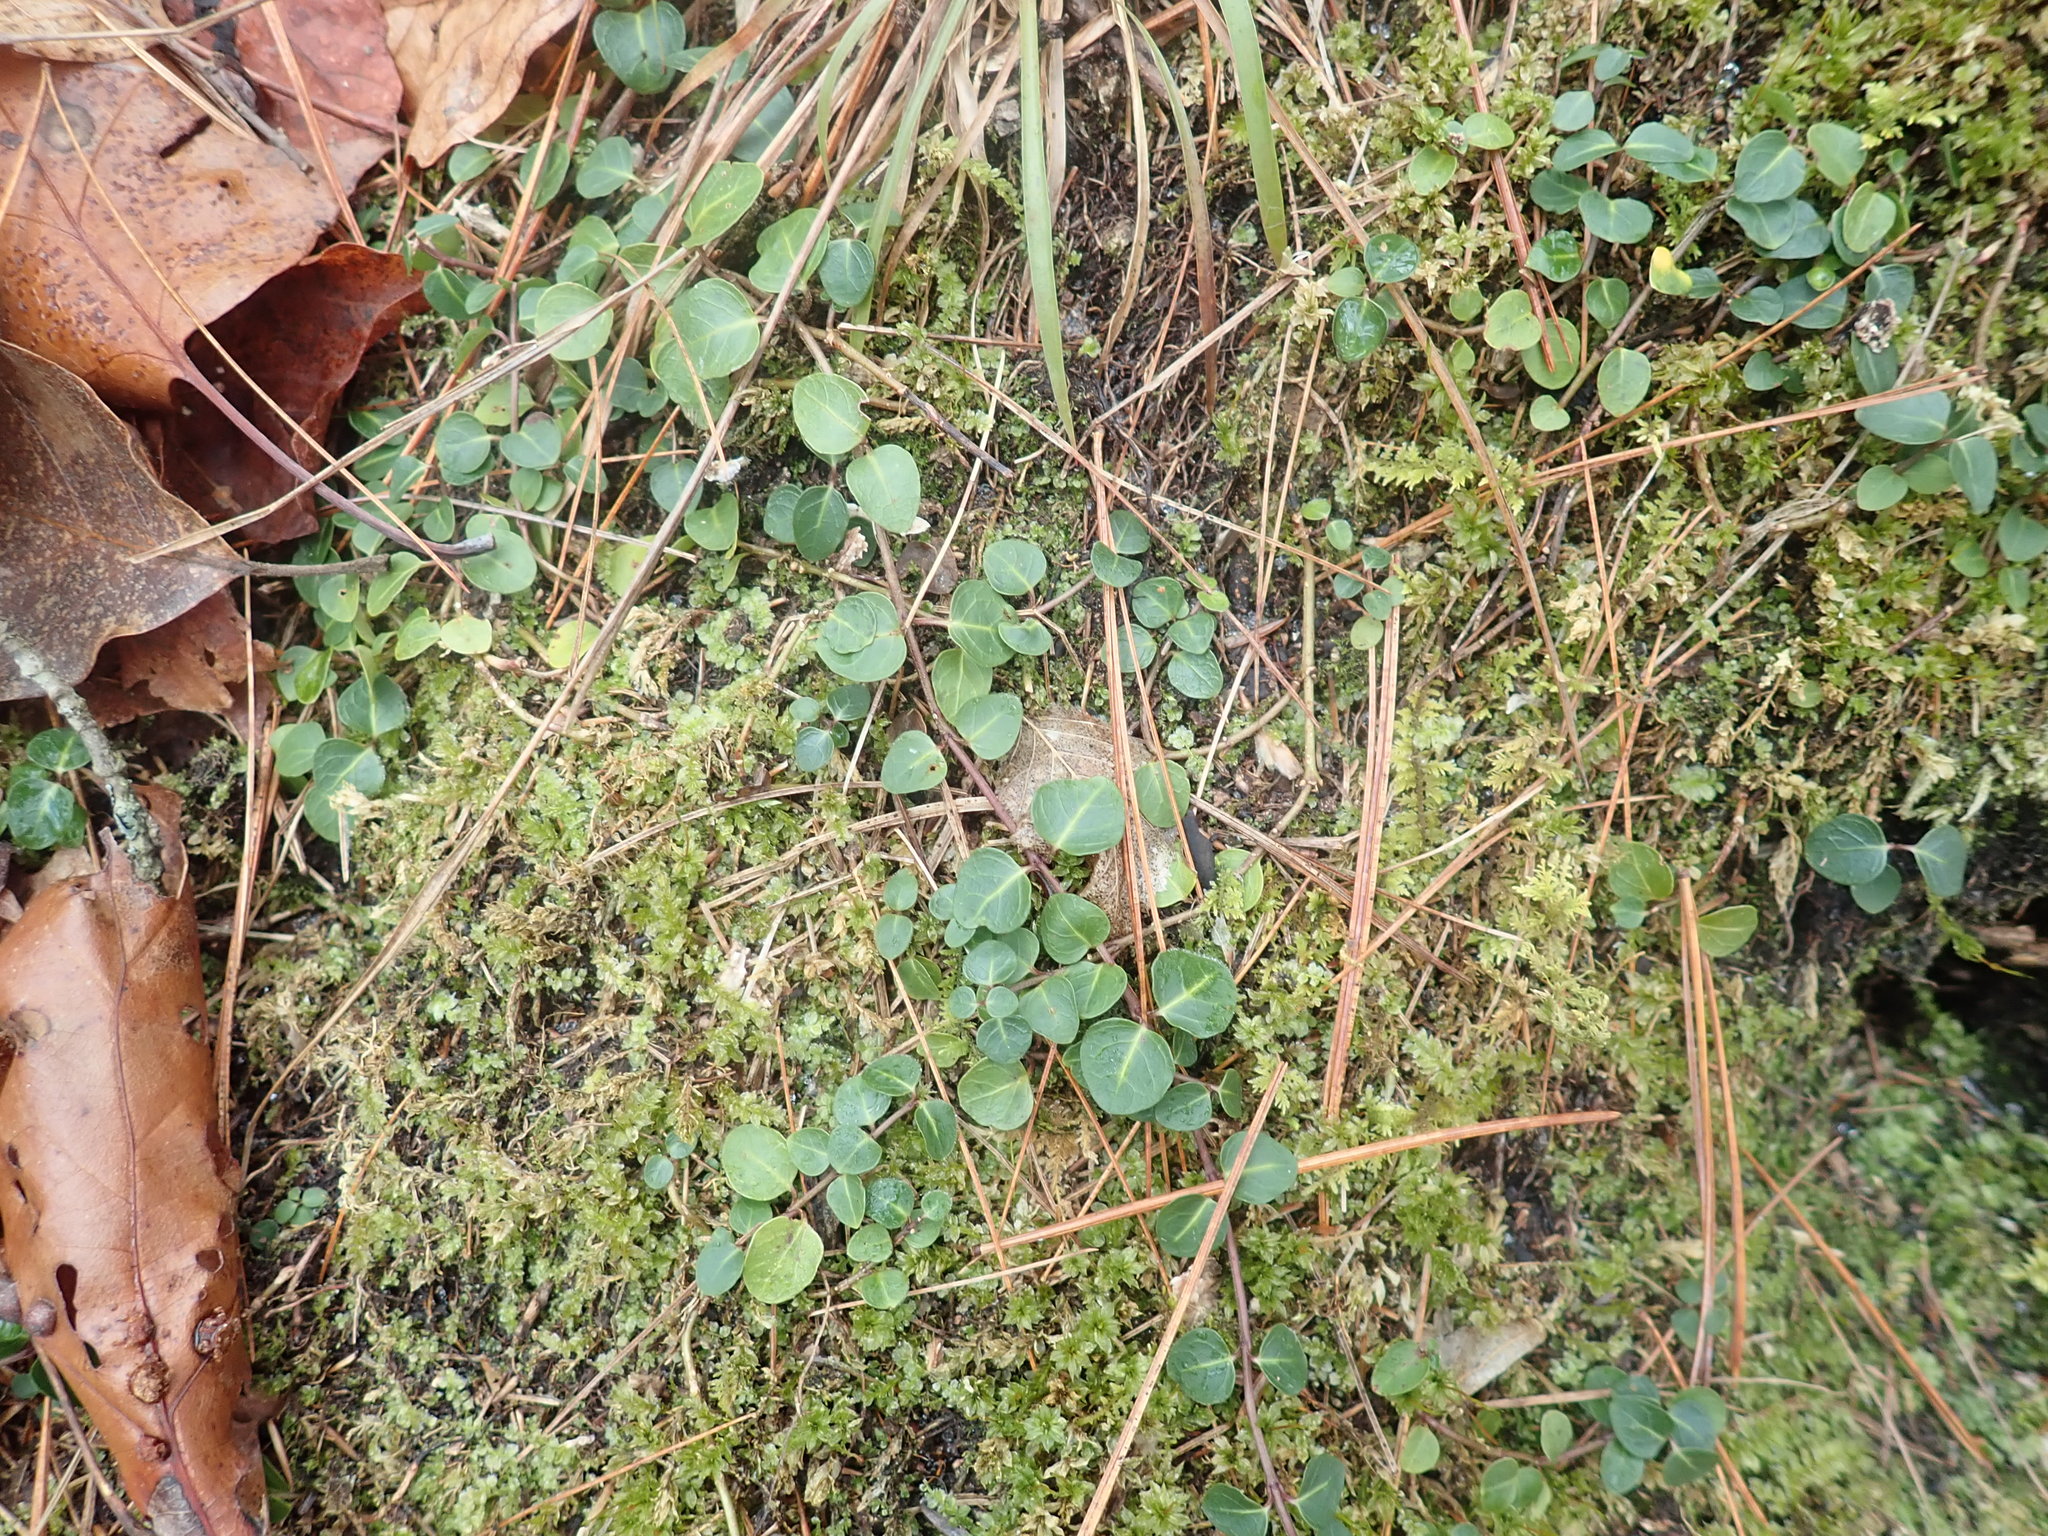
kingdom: Plantae
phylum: Tracheophyta
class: Magnoliopsida
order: Gentianales
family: Rubiaceae
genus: Mitchella
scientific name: Mitchella repens
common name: Partridge-berry
